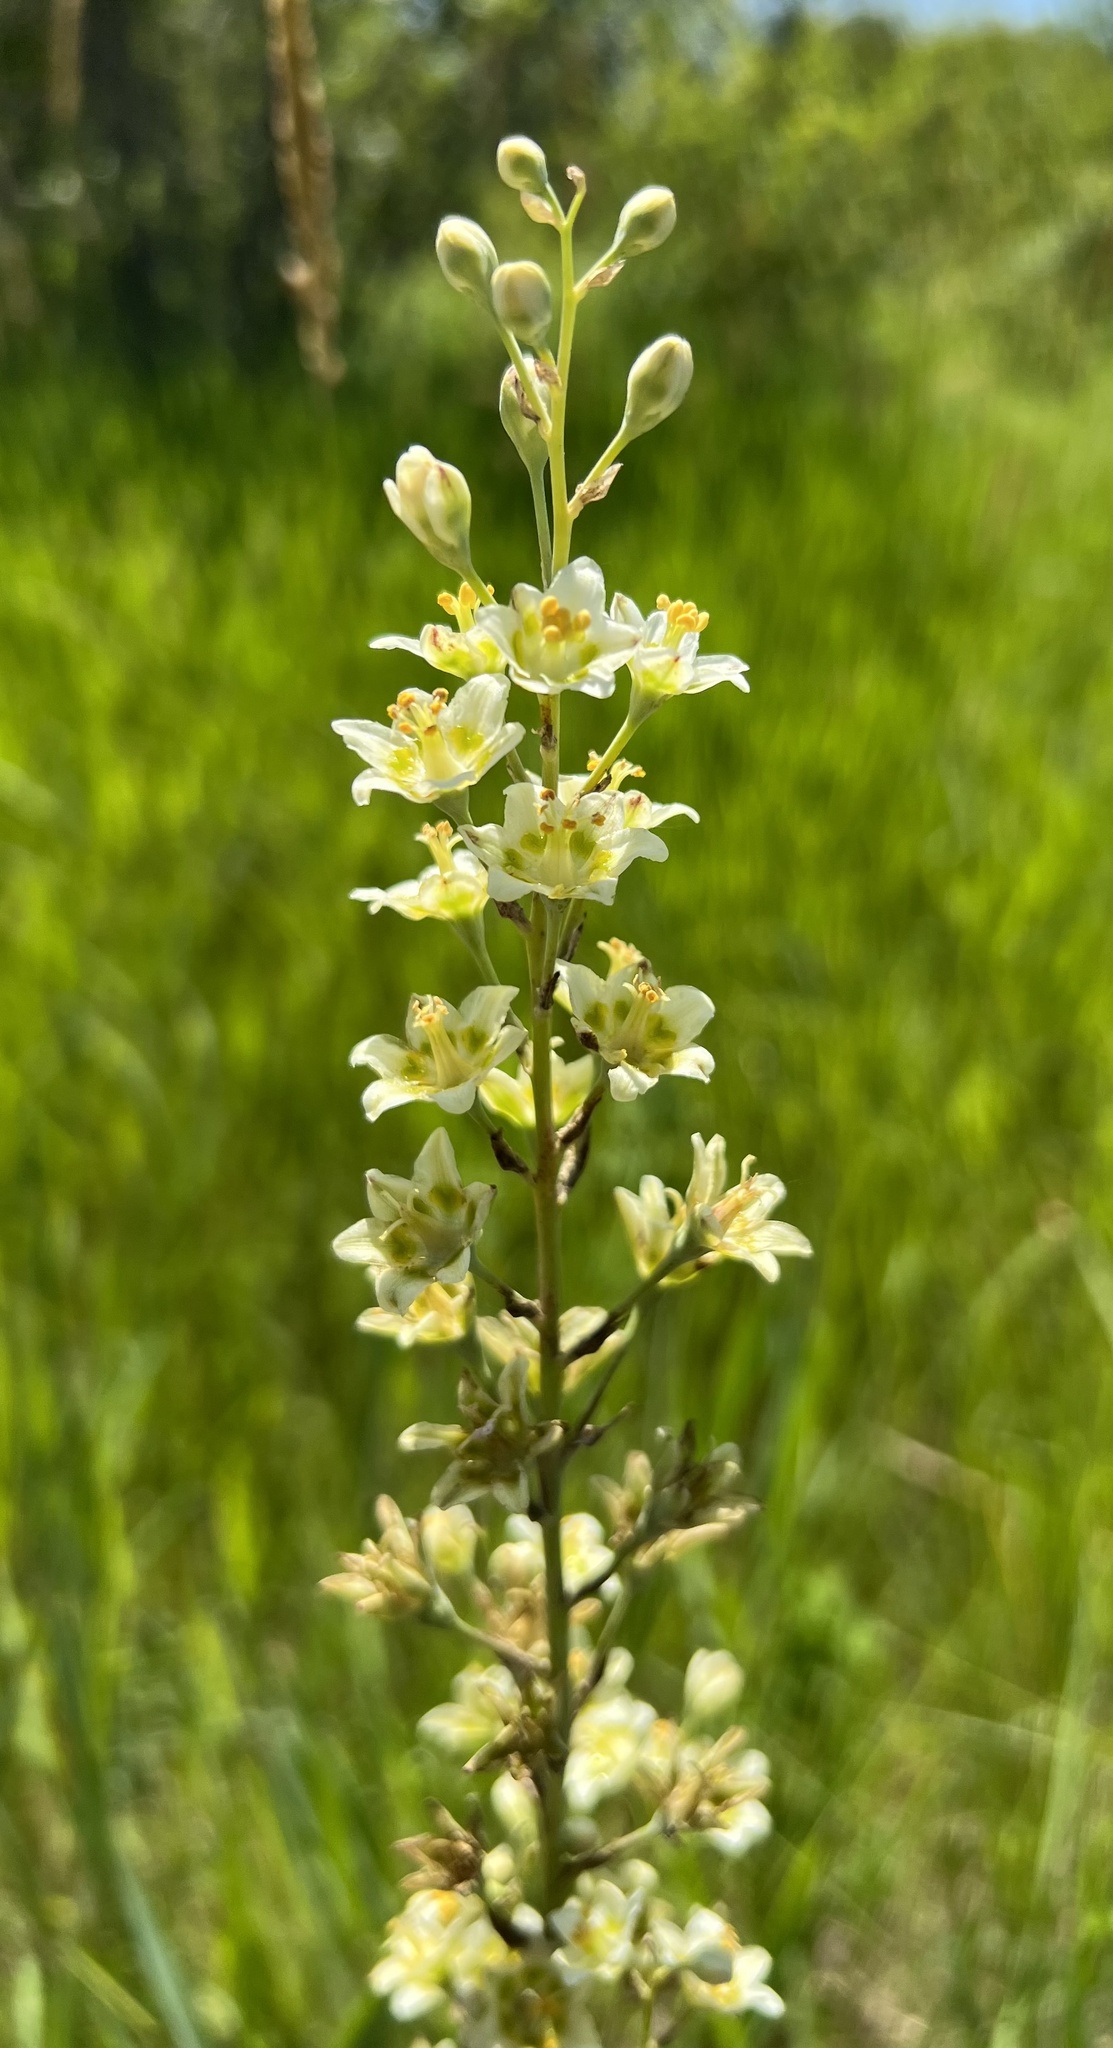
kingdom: Plantae
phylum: Tracheophyta
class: Liliopsida
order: Liliales
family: Melanthiaceae
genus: Anticlea
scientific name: Anticlea elegans
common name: Mountain death camas
